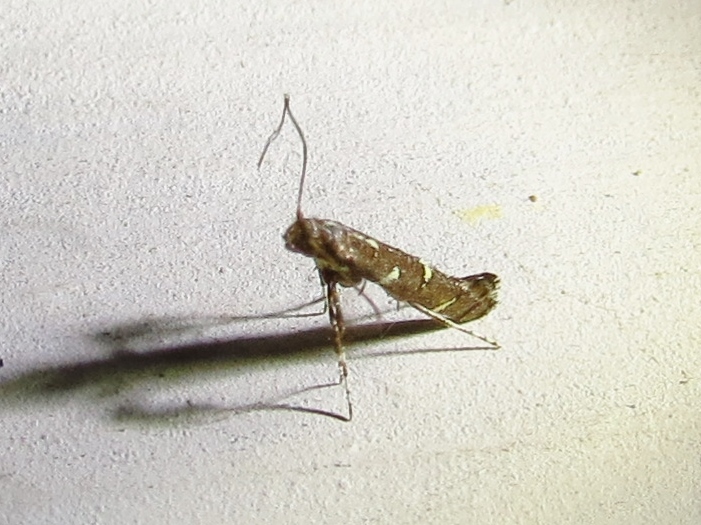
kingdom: Animalia
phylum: Arthropoda
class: Insecta
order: Lepidoptera
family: Gracillariidae
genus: Caloptilia
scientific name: Caloptilia triadicae
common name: Tallow leaf roller
